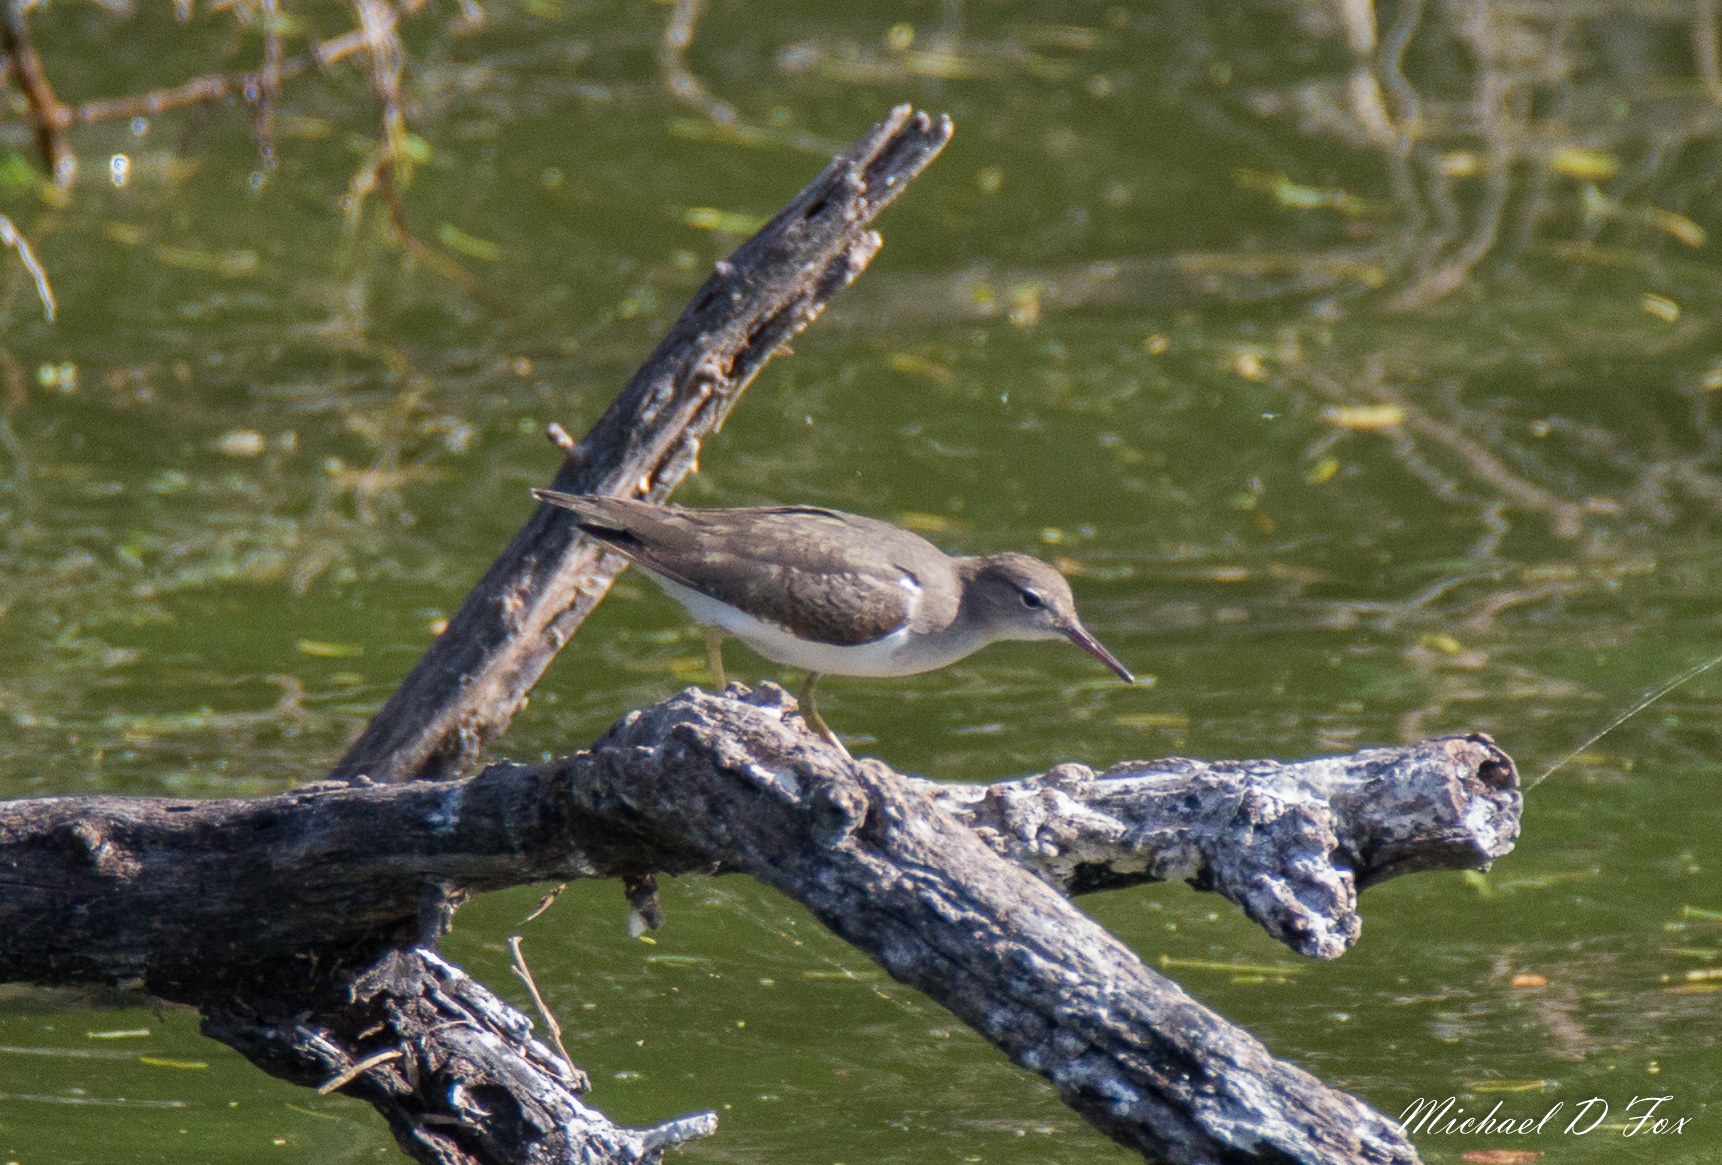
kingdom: Animalia
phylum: Chordata
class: Aves
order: Charadriiformes
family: Scolopacidae
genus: Actitis
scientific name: Actitis macularius
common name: Spotted sandpiper
